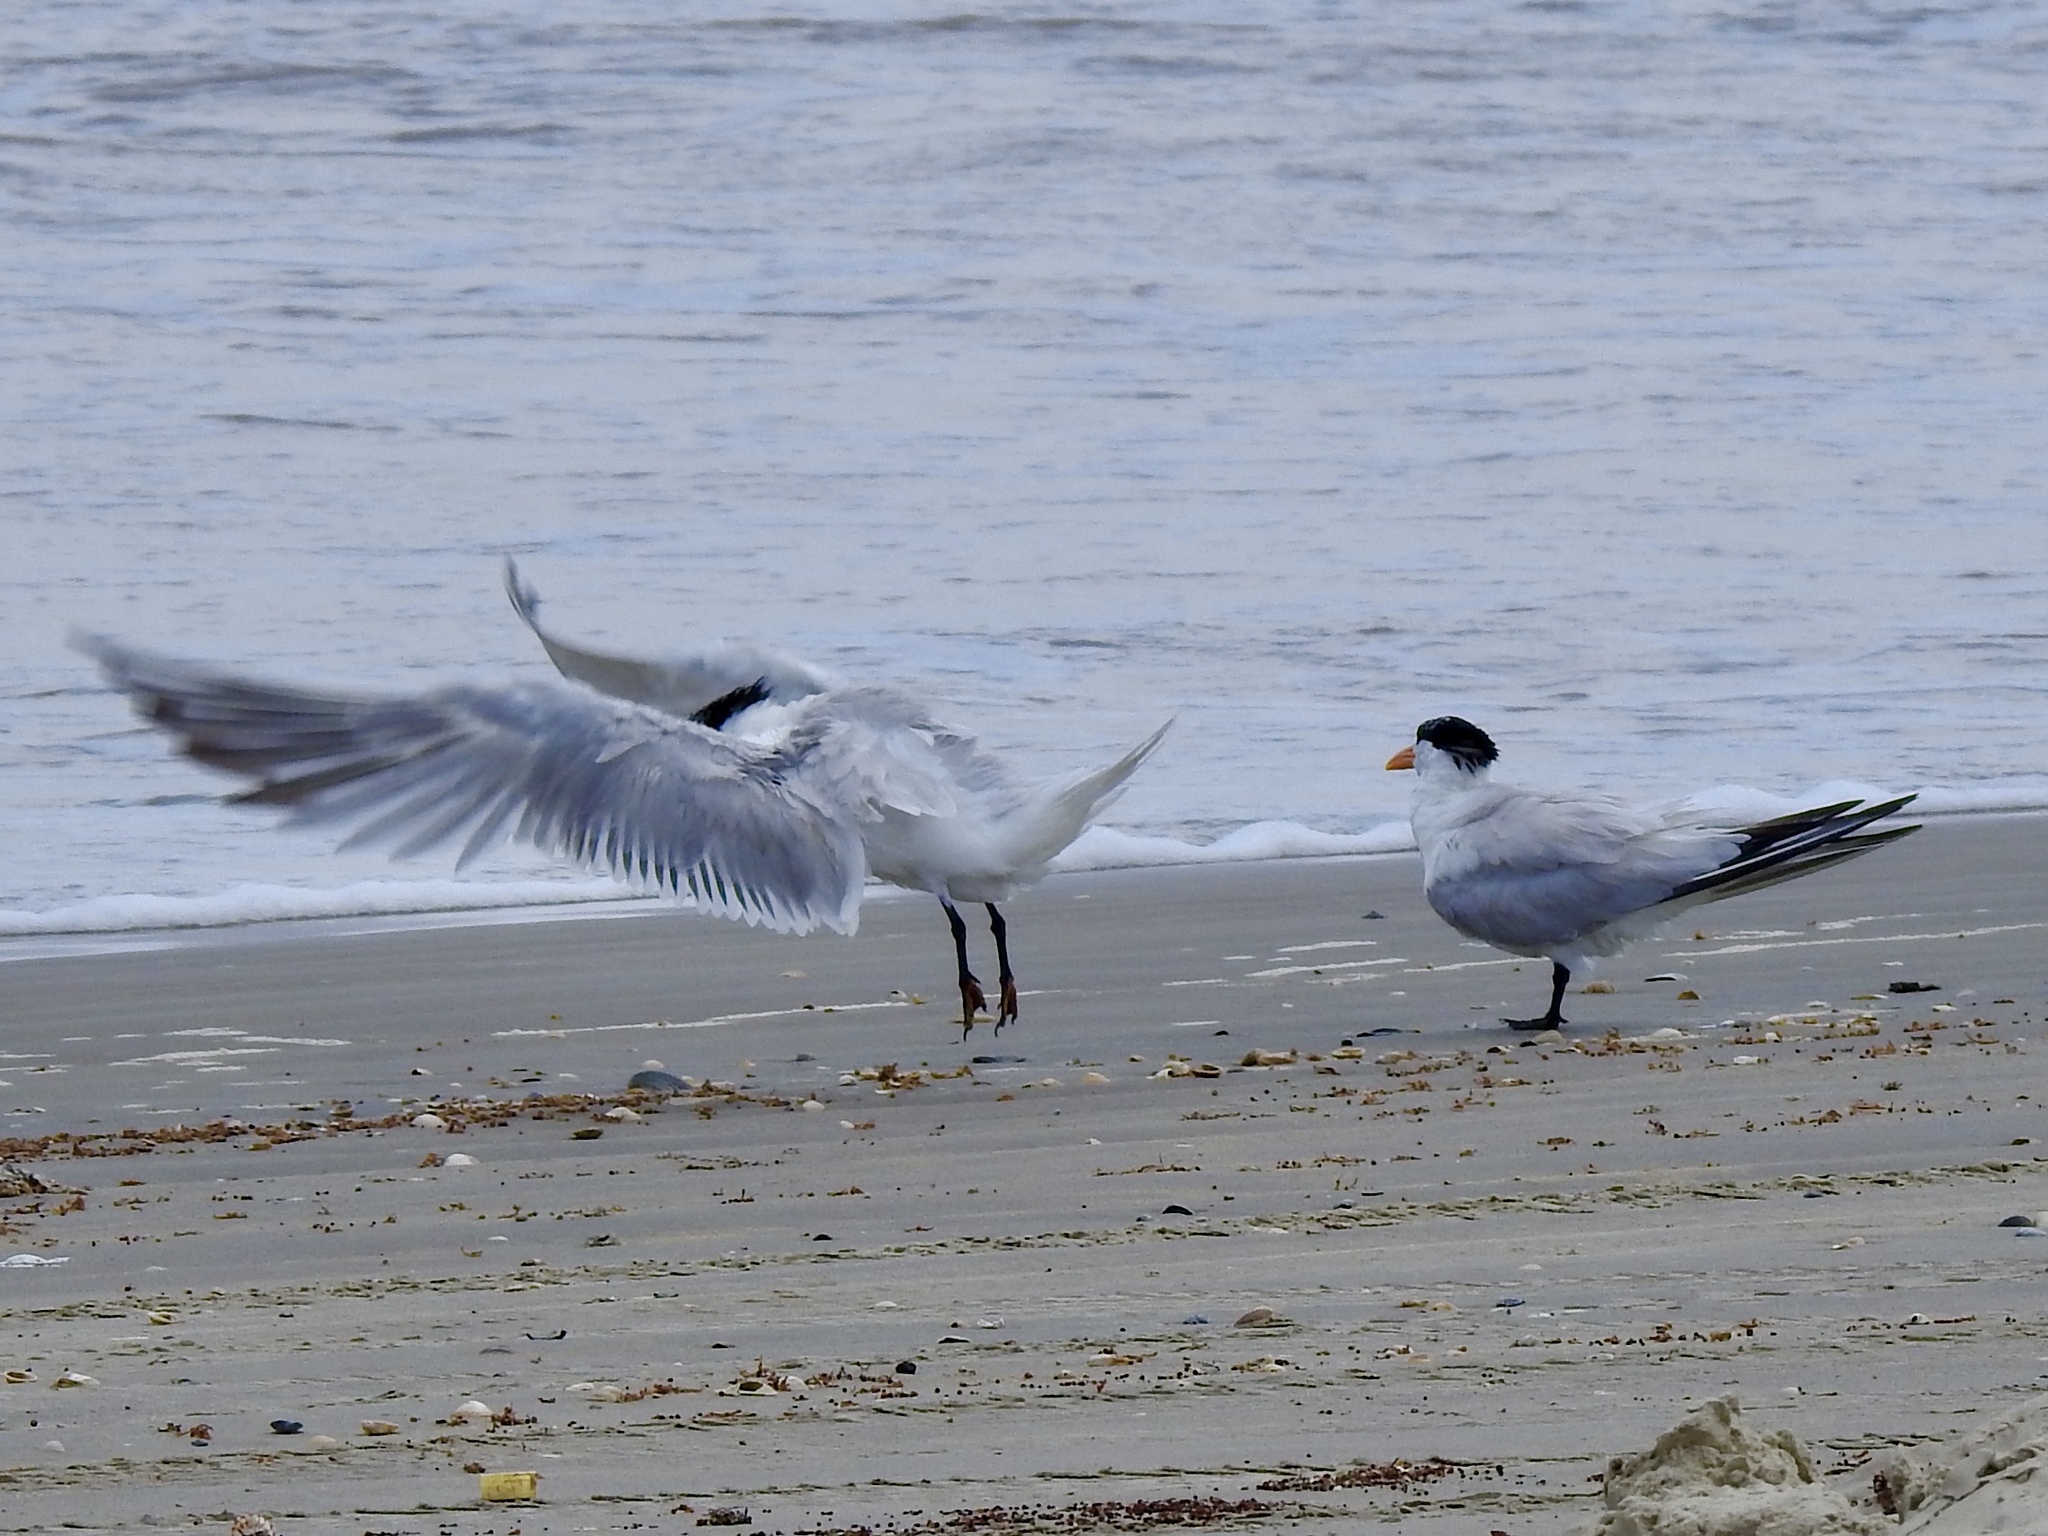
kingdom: Animalia
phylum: Chordata
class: Aves
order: Charadriiformes
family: Laridae
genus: Thalasseus
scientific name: Thalasseus maximus
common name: Royal tern
